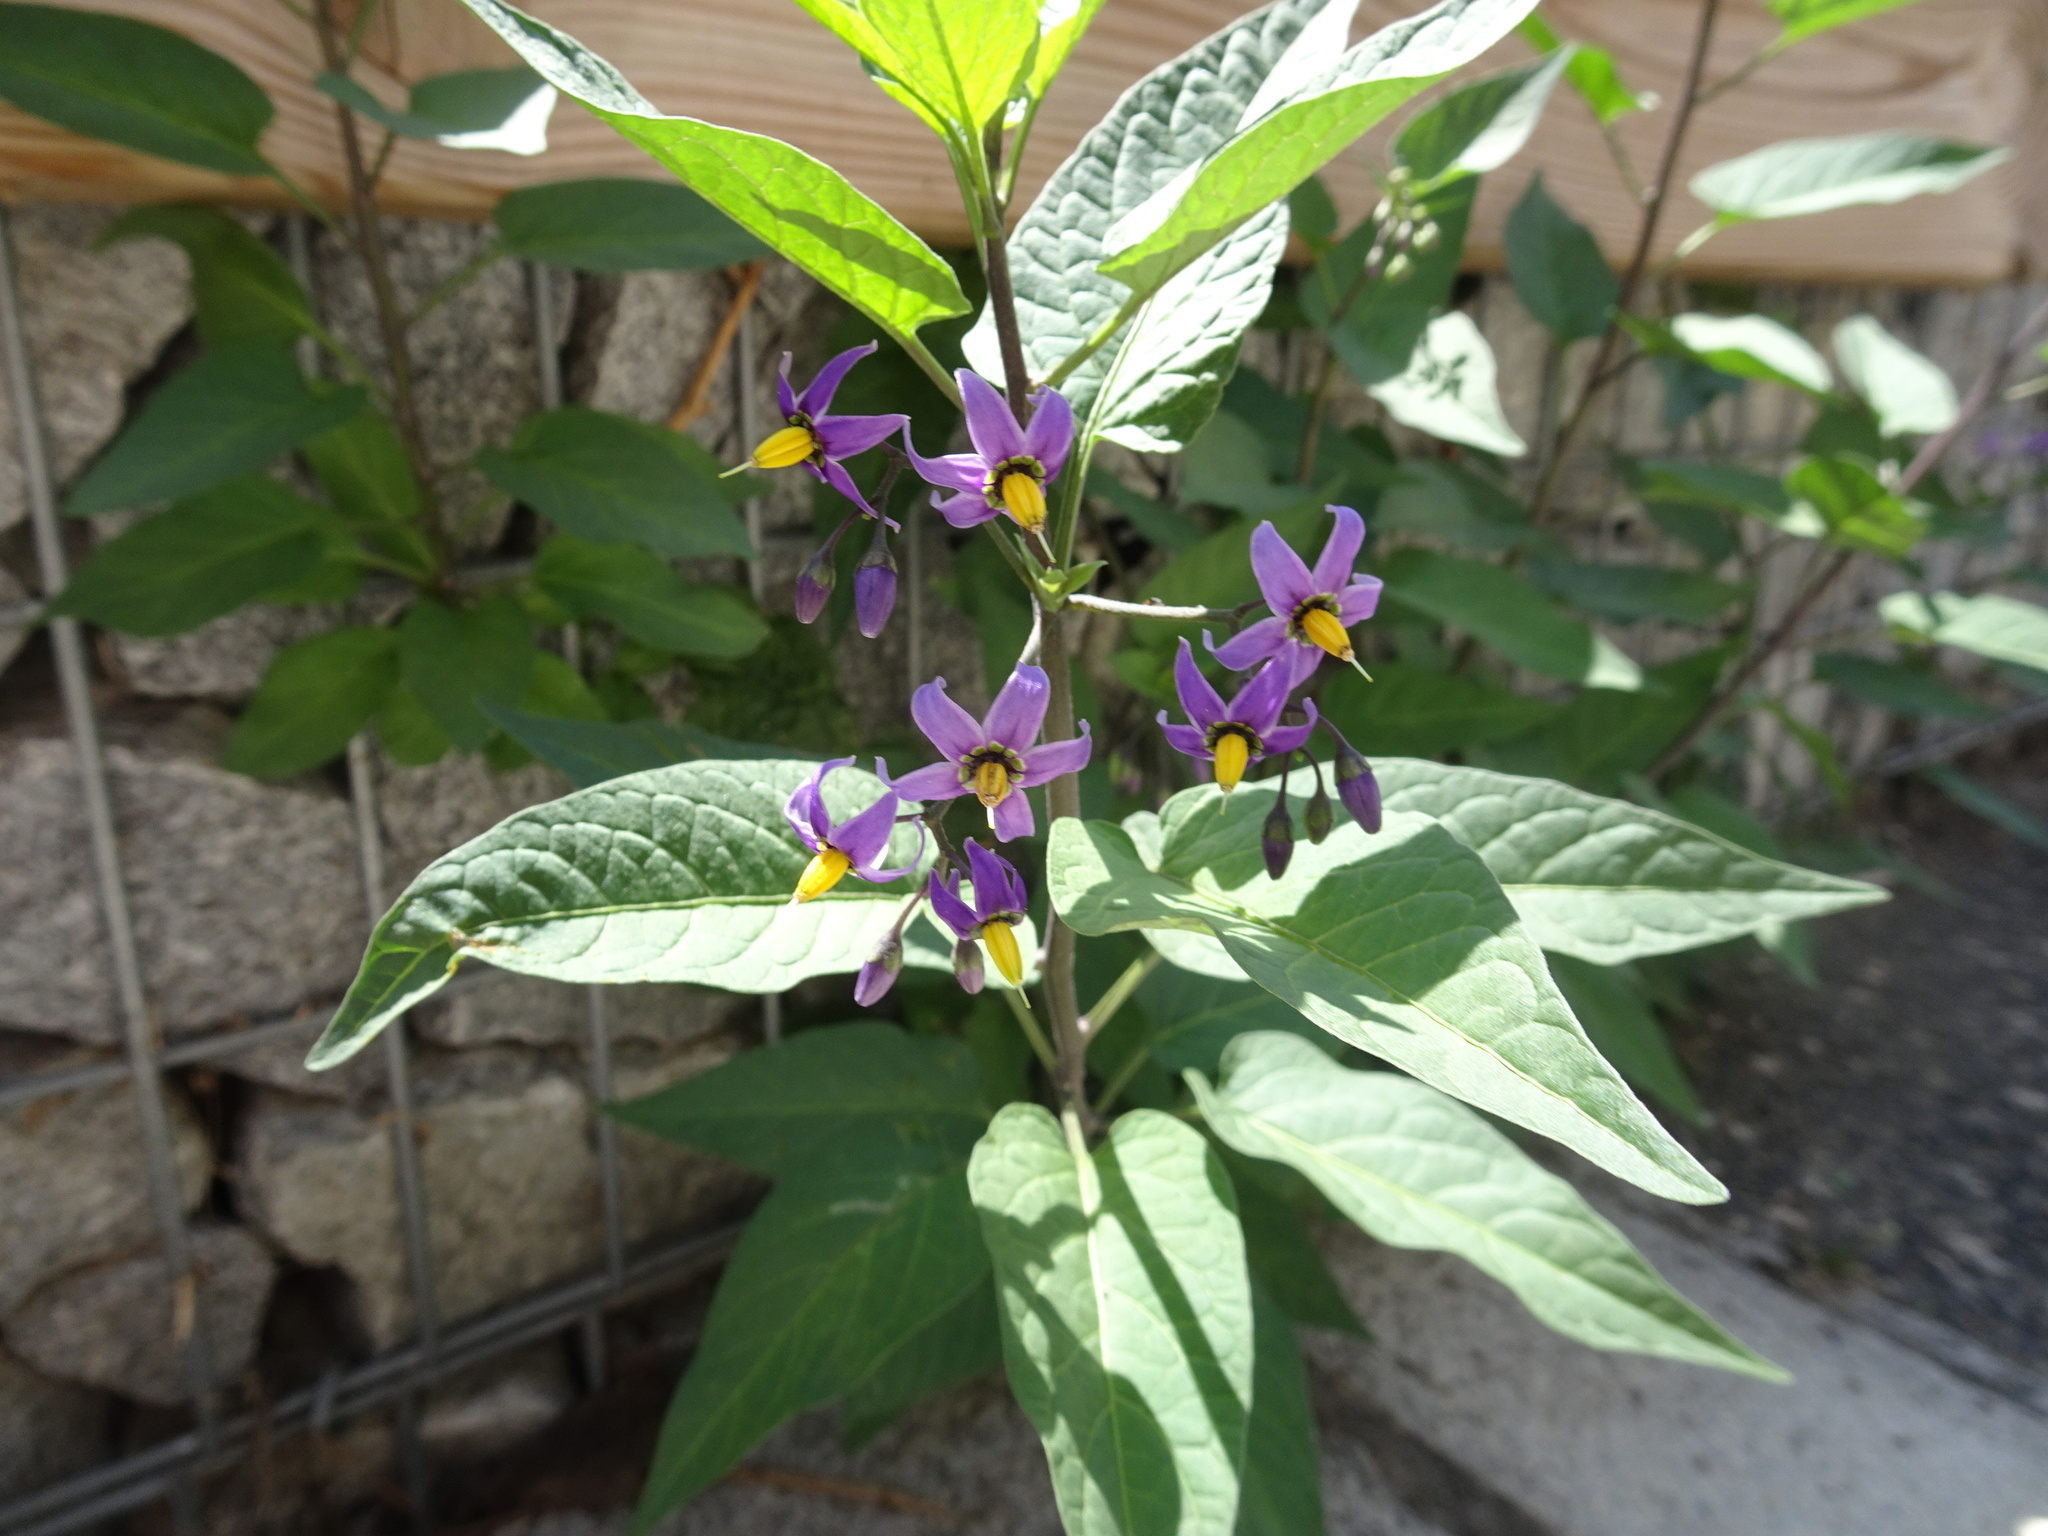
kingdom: Plantae
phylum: Tracheophyta
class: Magnoliopsida
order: Solanales
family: Solanaceae
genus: Solanum
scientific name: Solanum dulcamara
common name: Climbing nightshade
